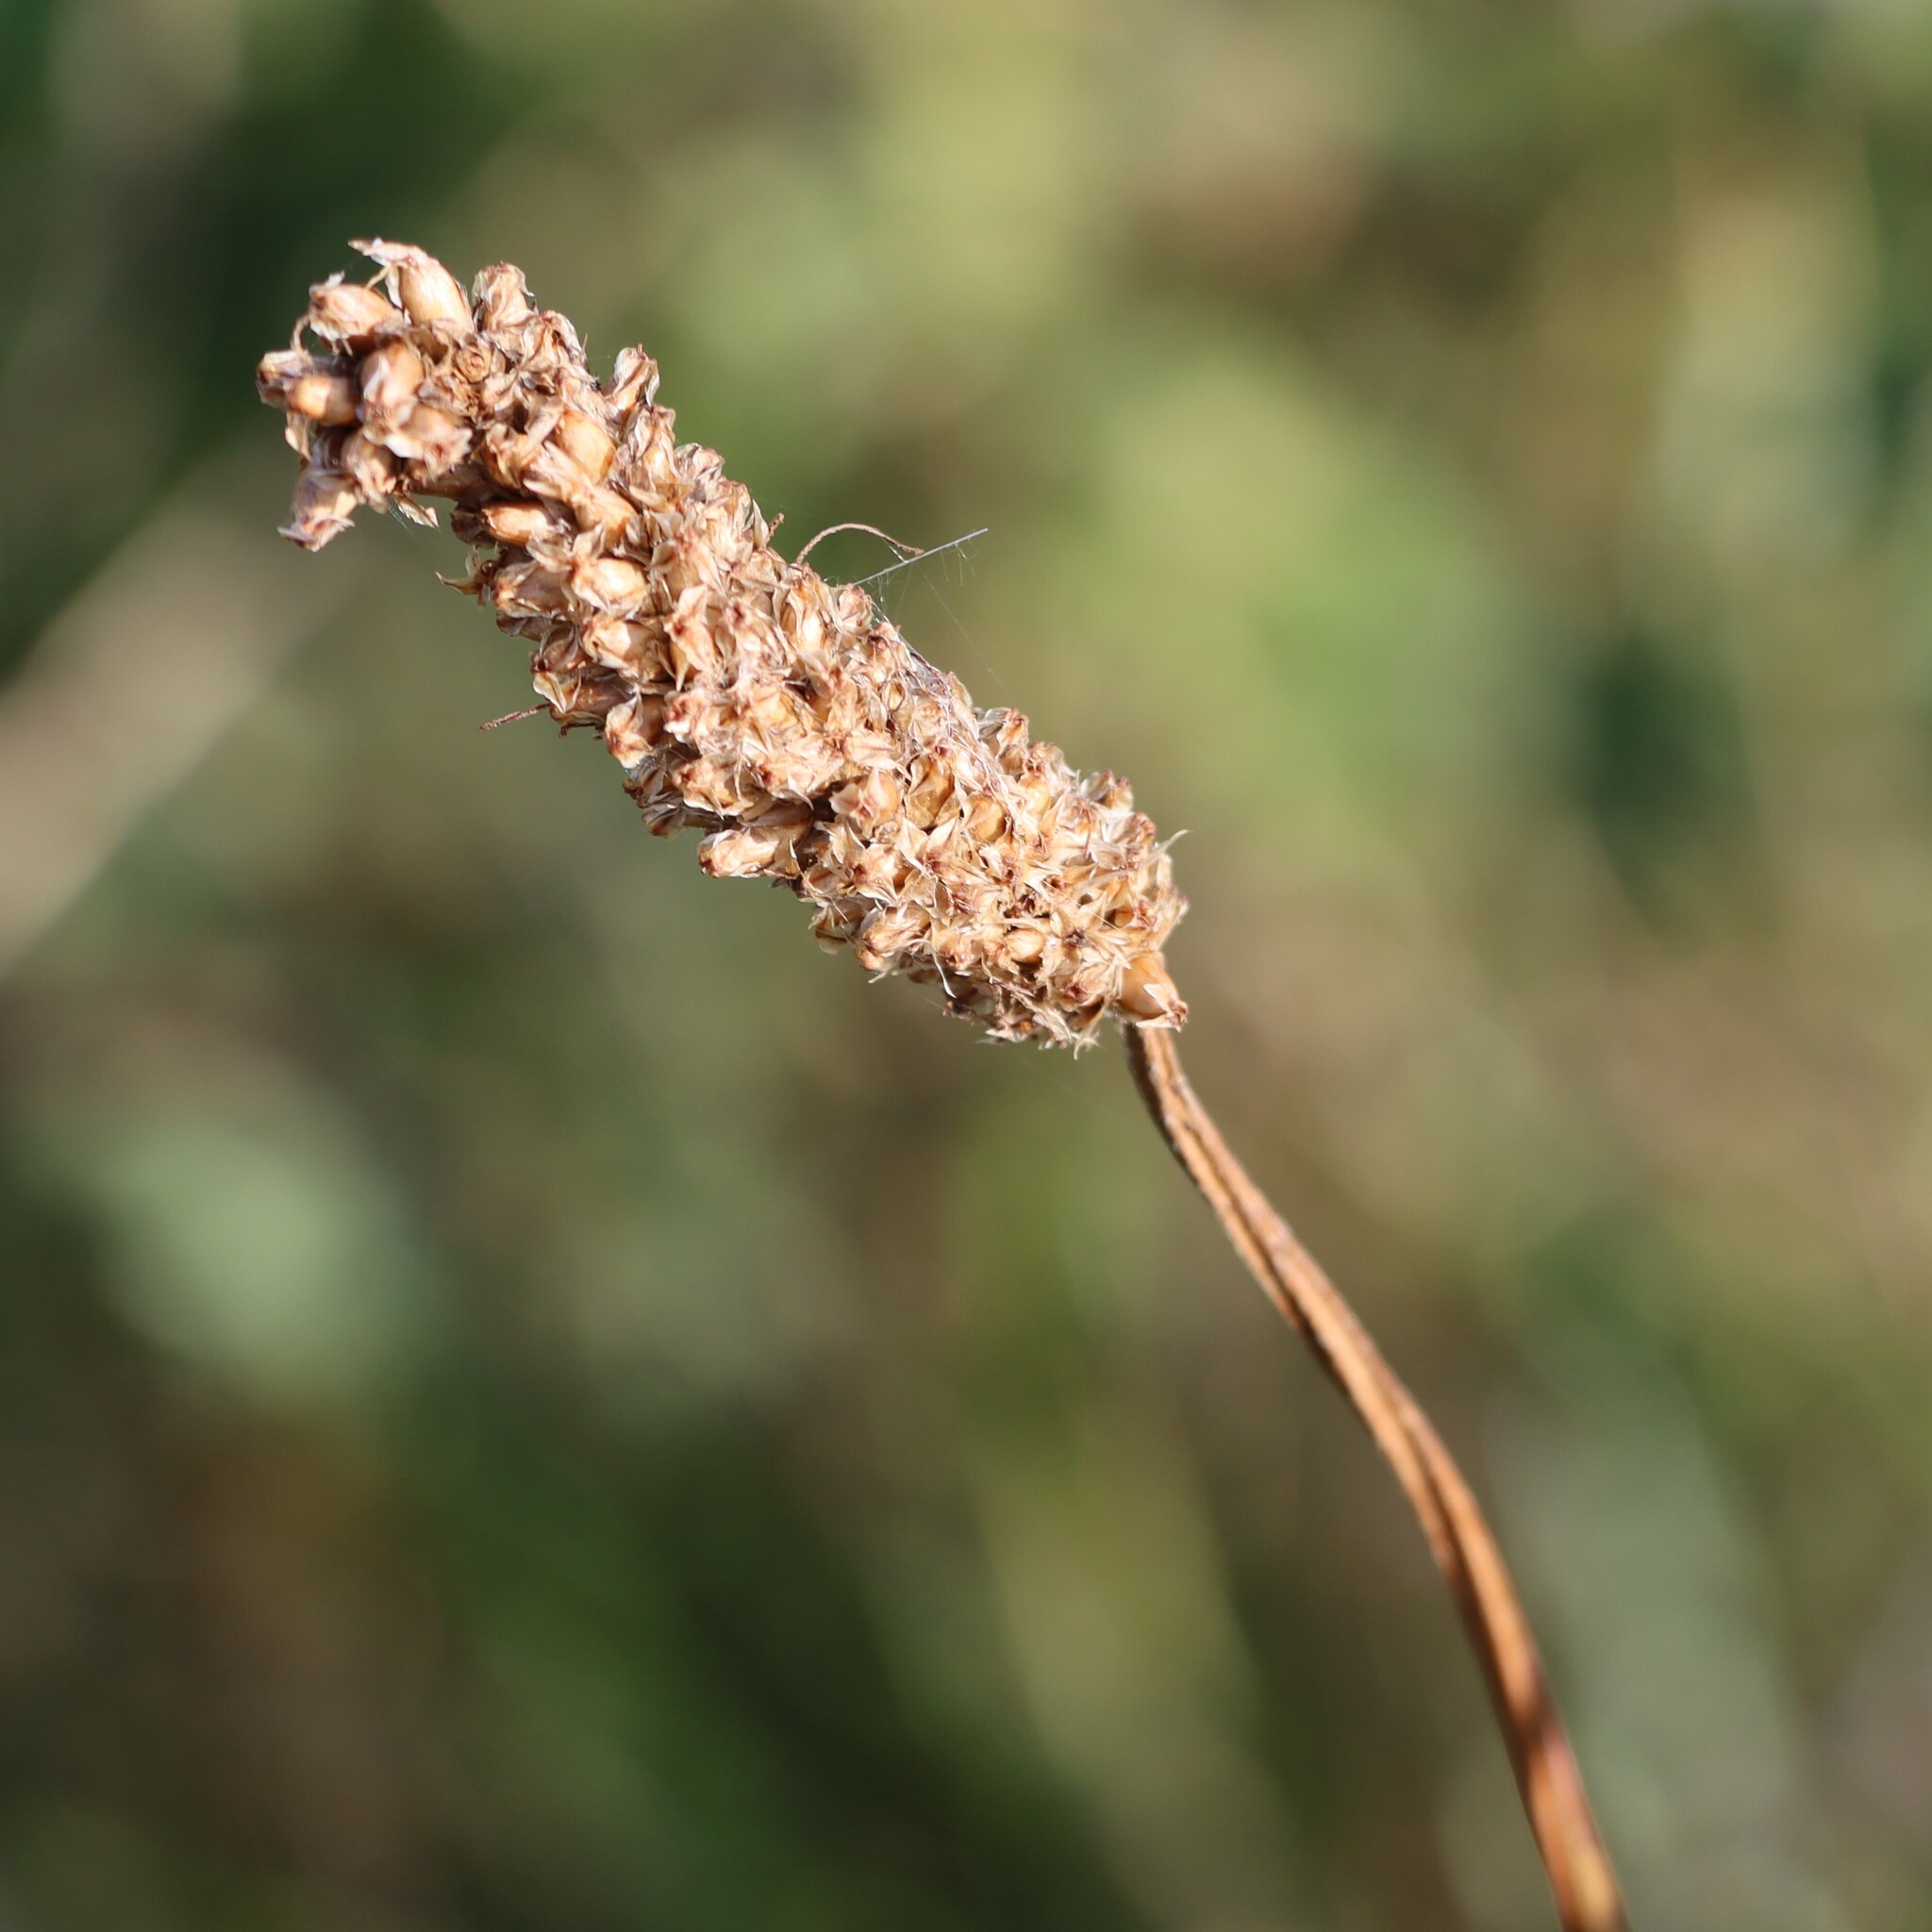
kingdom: Plantae
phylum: Tracheophyta
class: Magnoliopsida
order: Lamiales
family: Plantaginaceae
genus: Plantago
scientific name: Plantago lanceolata
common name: Ribwort plantain
